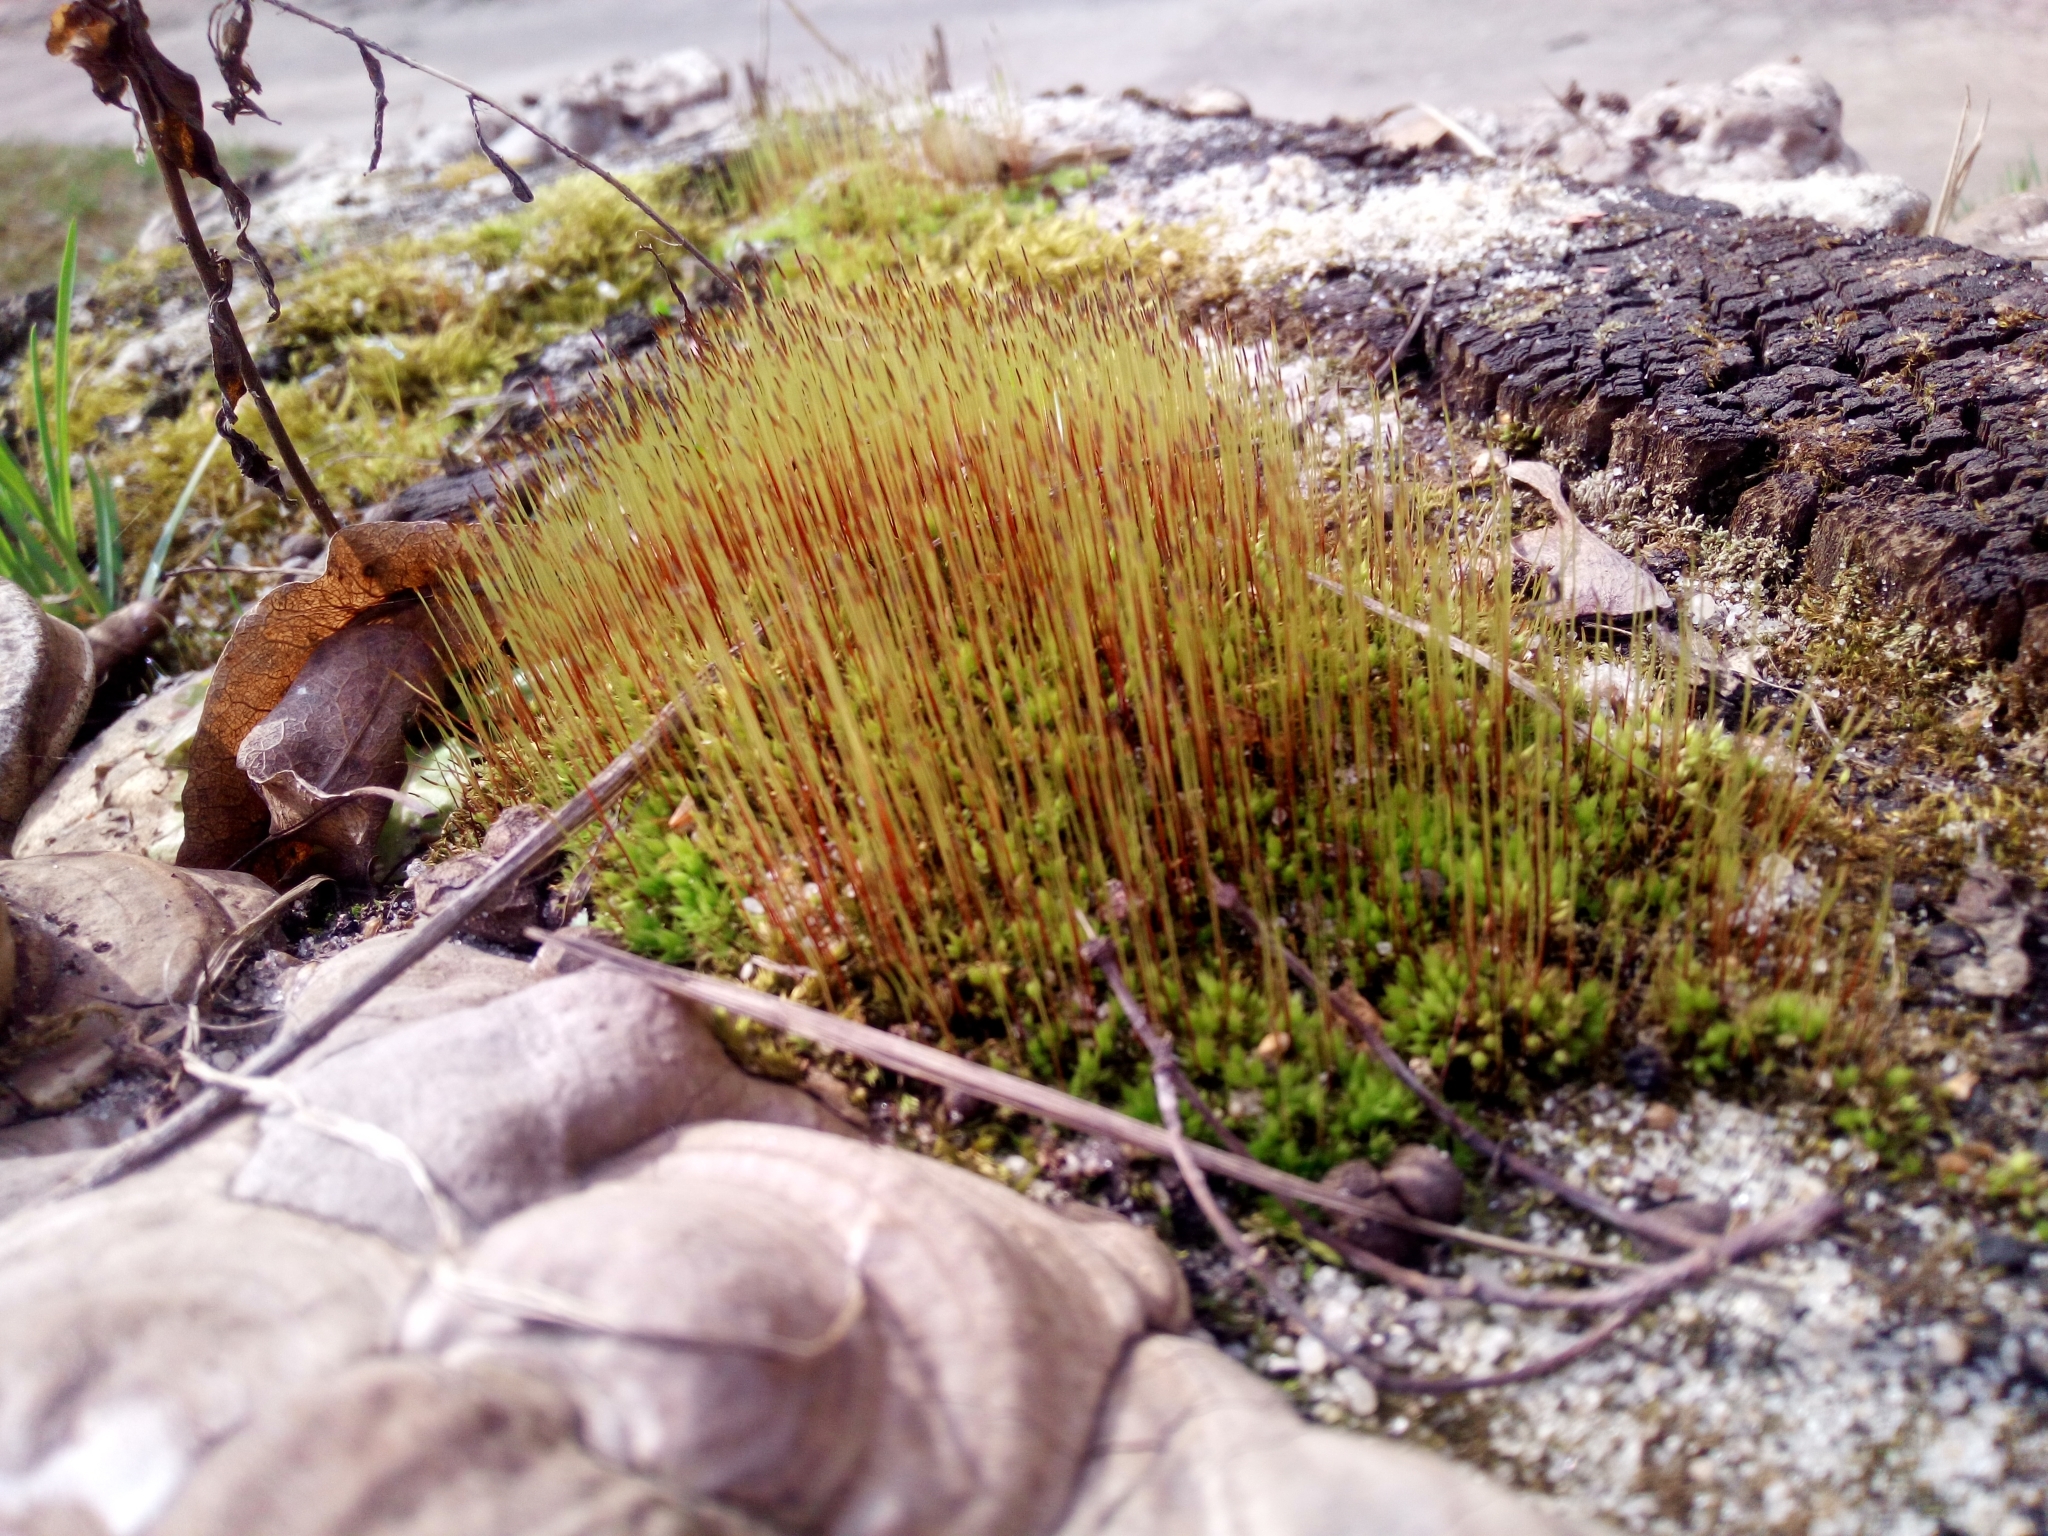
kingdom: Plantae
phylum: Bryophyta
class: Bryopsida
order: Dicranales
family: Ditrichaceae
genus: Ceratodon
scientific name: Ceratodon purpureus
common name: Redshank
